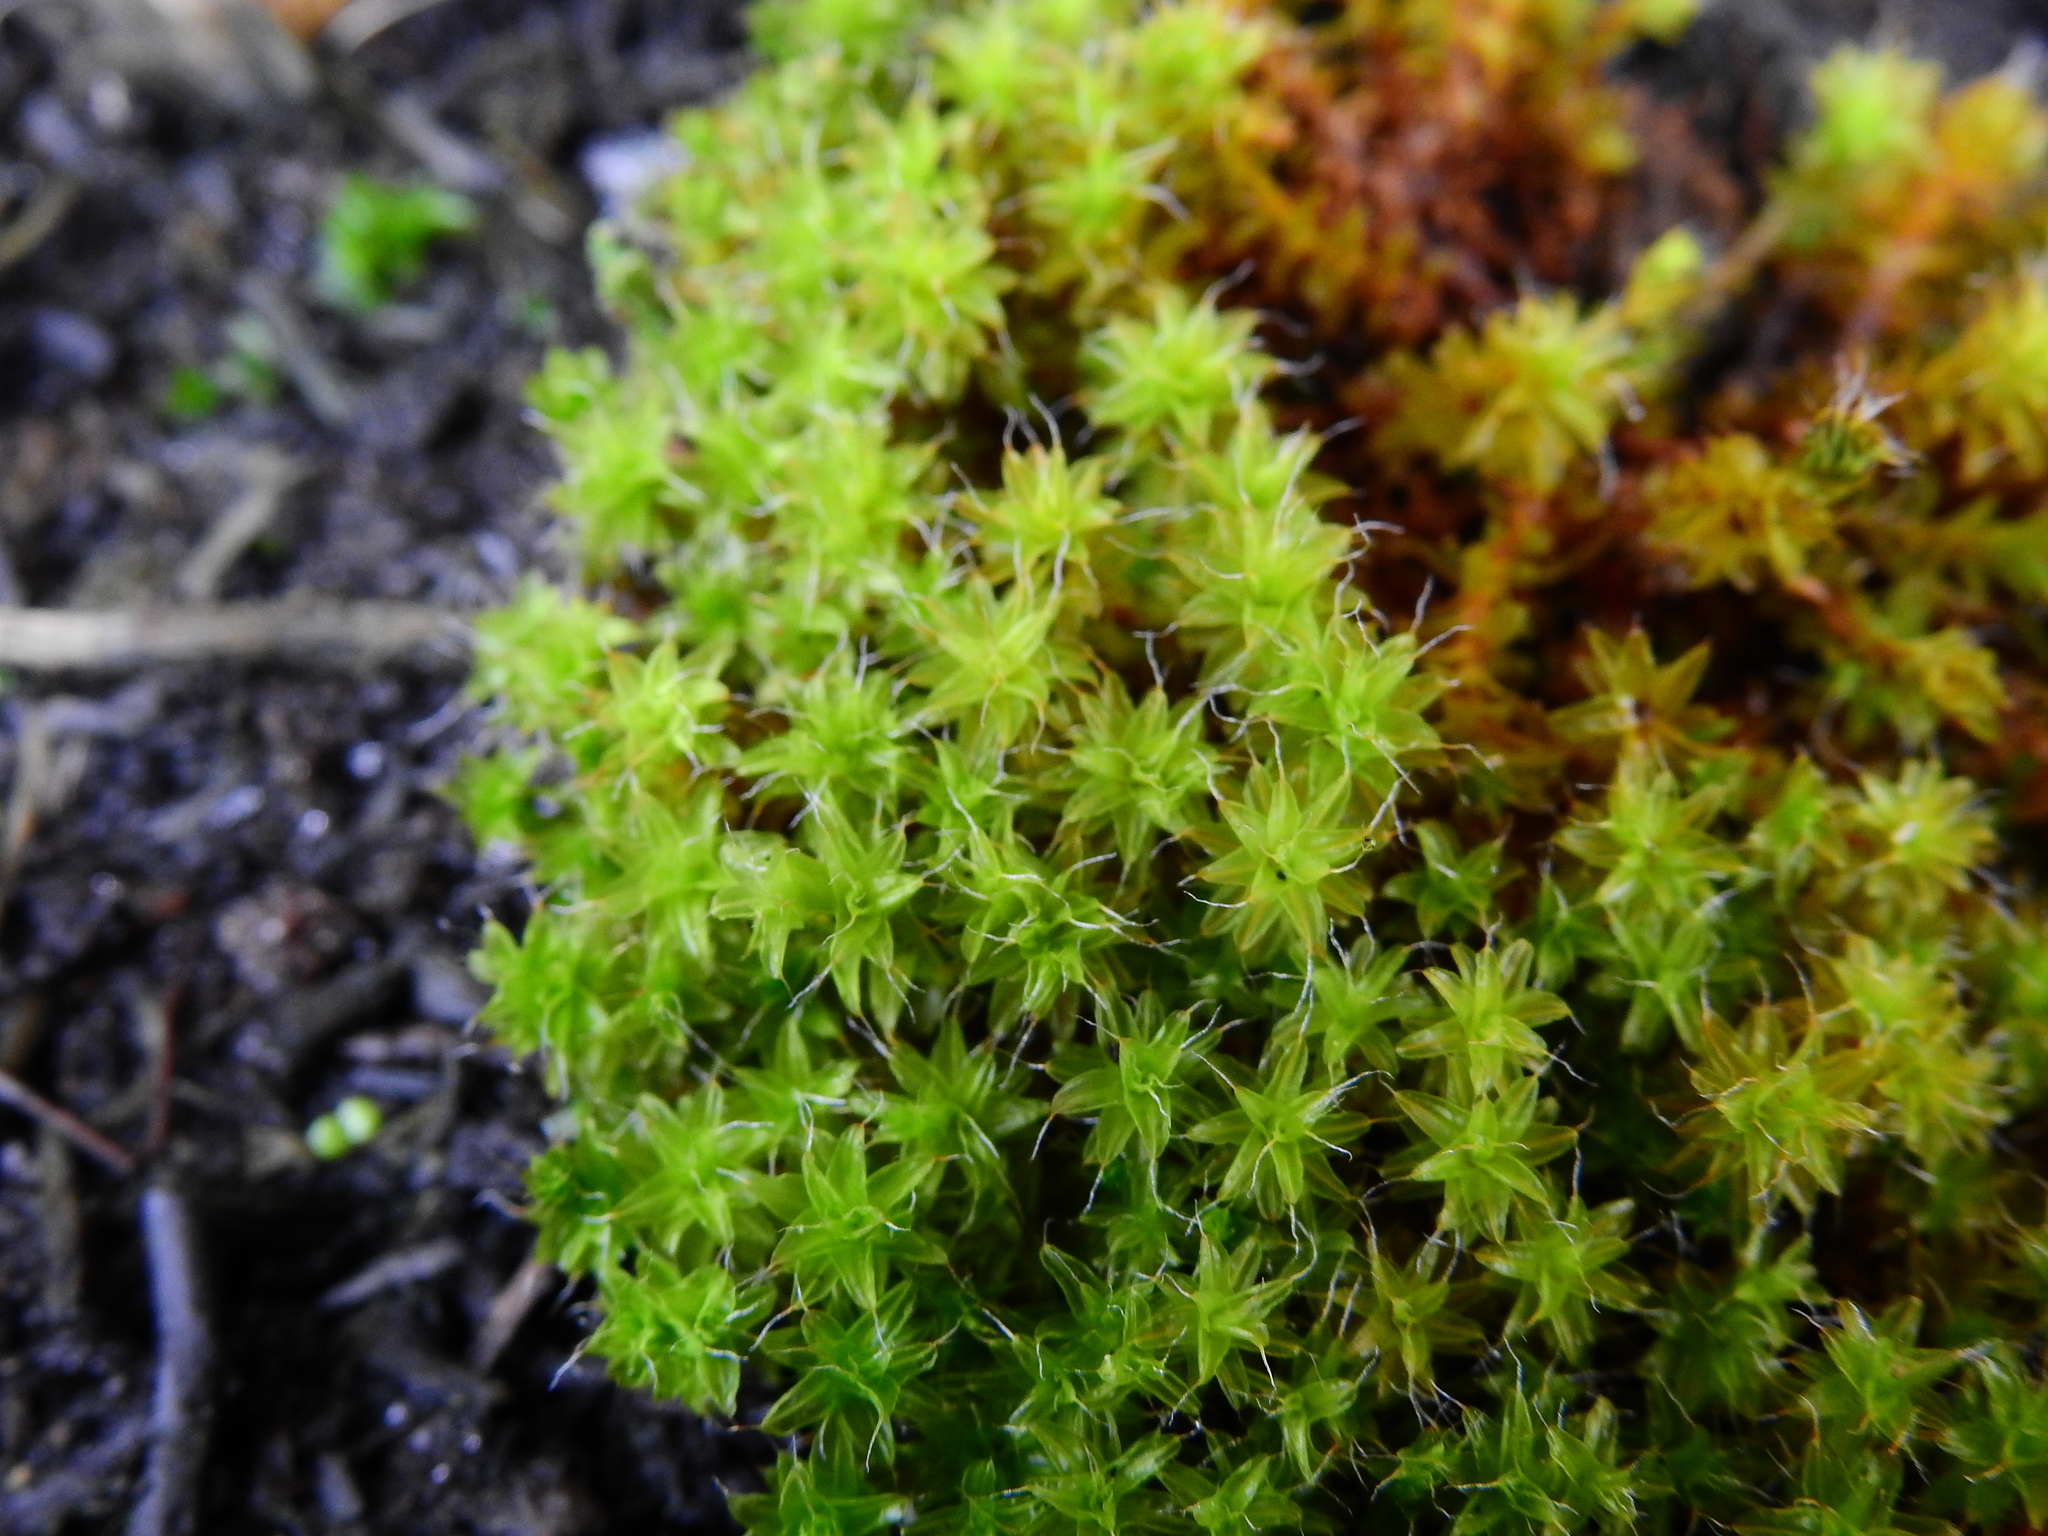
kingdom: Plantae
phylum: Bryophyta
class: Bryopsida
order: Pottiales
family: Pottiaceae
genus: Syntrichia
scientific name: Syntrichia ruralis
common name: Sidewalk screw moss
